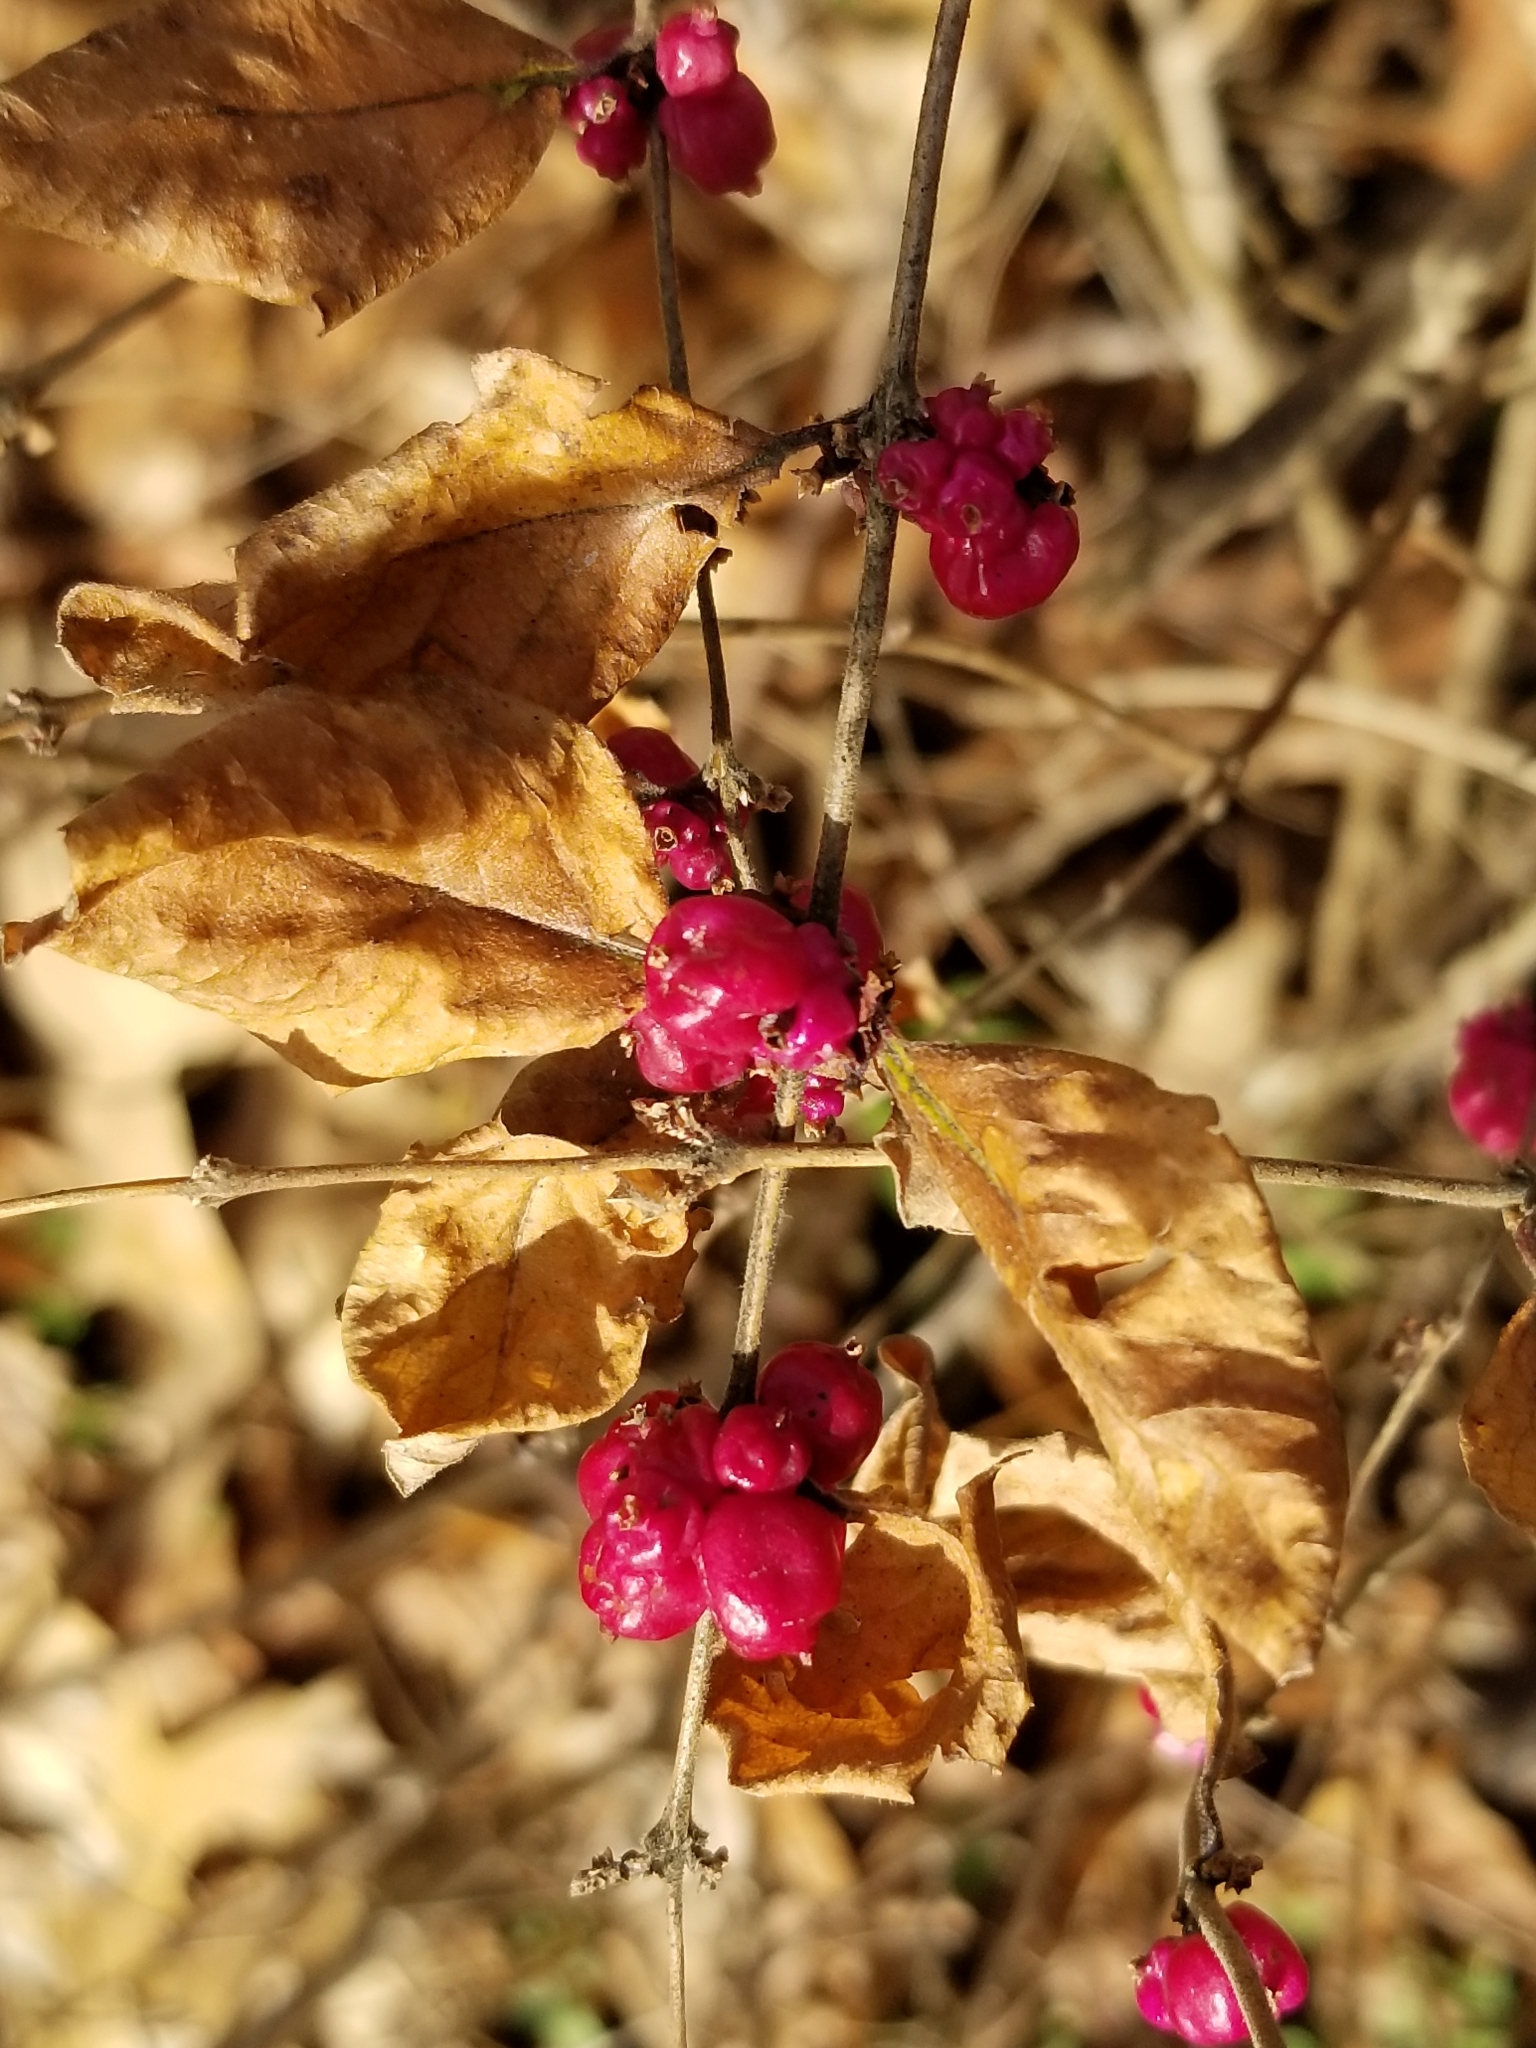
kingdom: Plantae
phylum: Tracheophyta
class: Magnoliopsida
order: Dipsacales
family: Caprifoliaceae
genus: Symphoricarpos
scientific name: Symphoricarpos orbiculatus
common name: Coralberry
